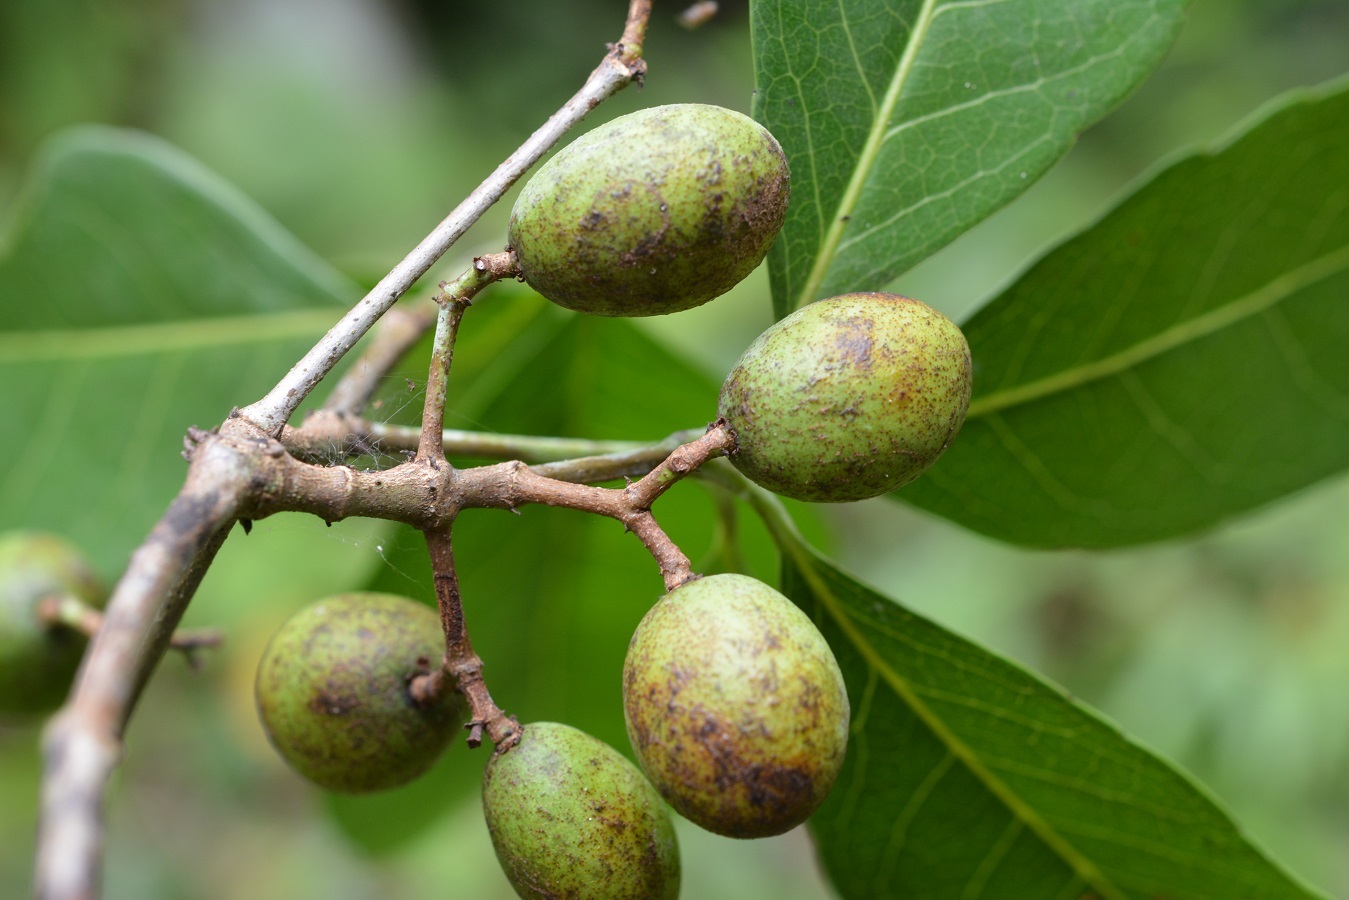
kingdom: Plantae
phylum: Tracheophyta
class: Magnoliopsida
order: Celastrales
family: Celastraceae
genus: Elaeodendron
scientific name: Elaeodendron xylocarpum
